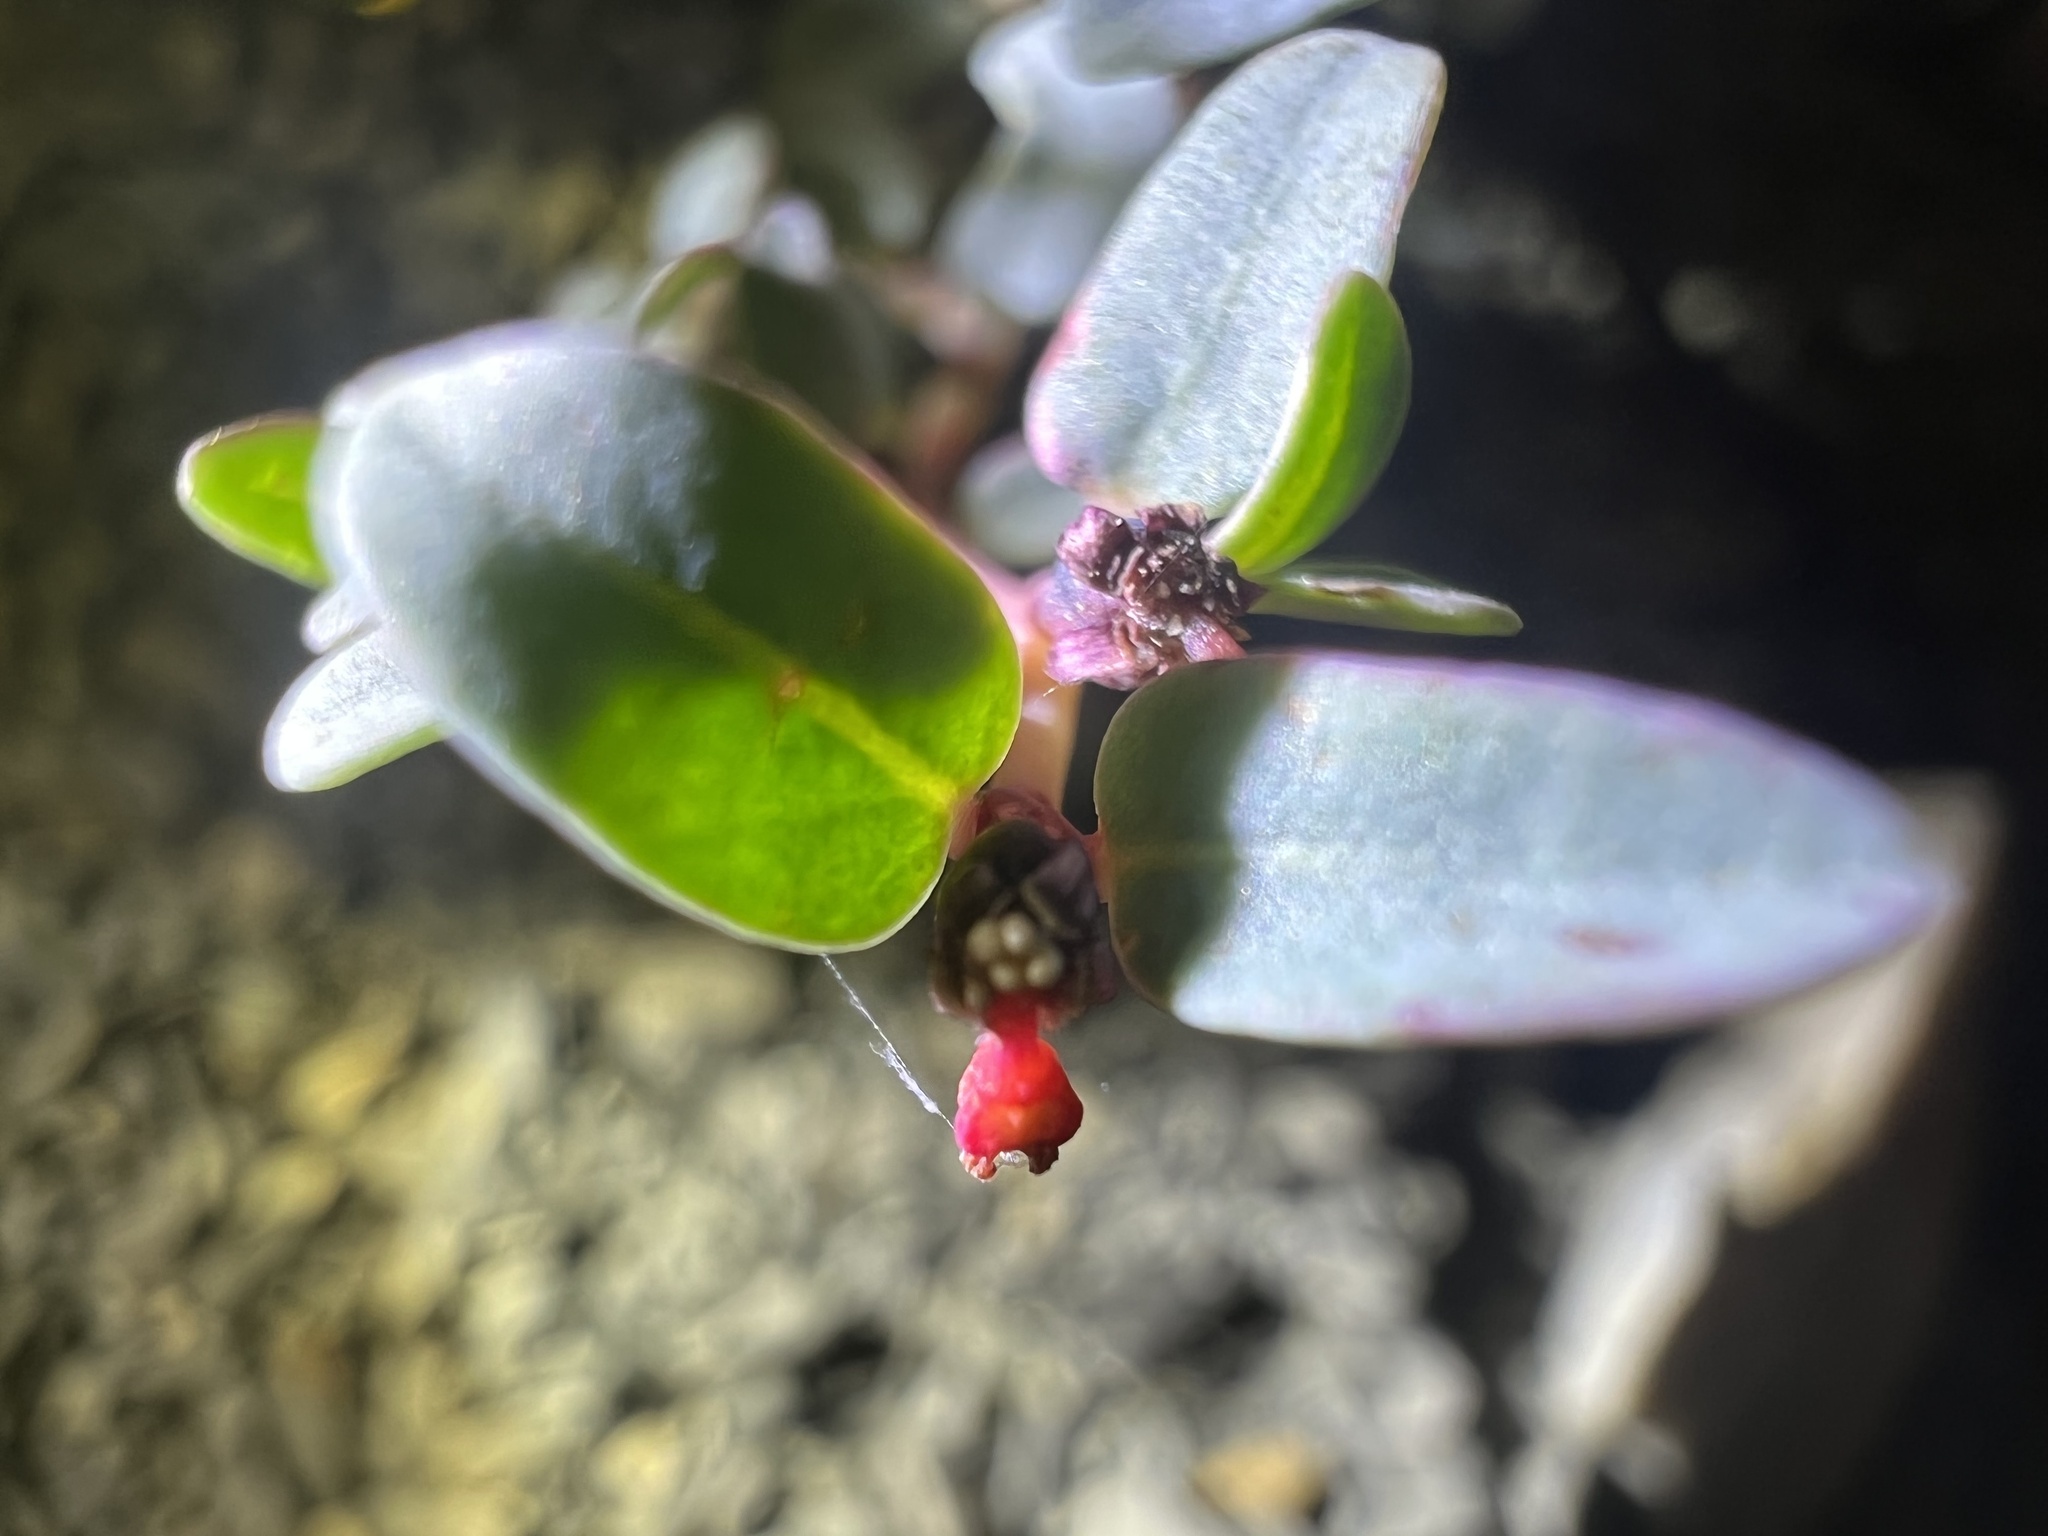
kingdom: Plantae
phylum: Tracheophyta
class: Magnoliopsida
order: Malpighiales
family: Euphorbiaceae
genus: Euphorbia
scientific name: Euphorbia fendleri
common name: Fendler's euphorbia
